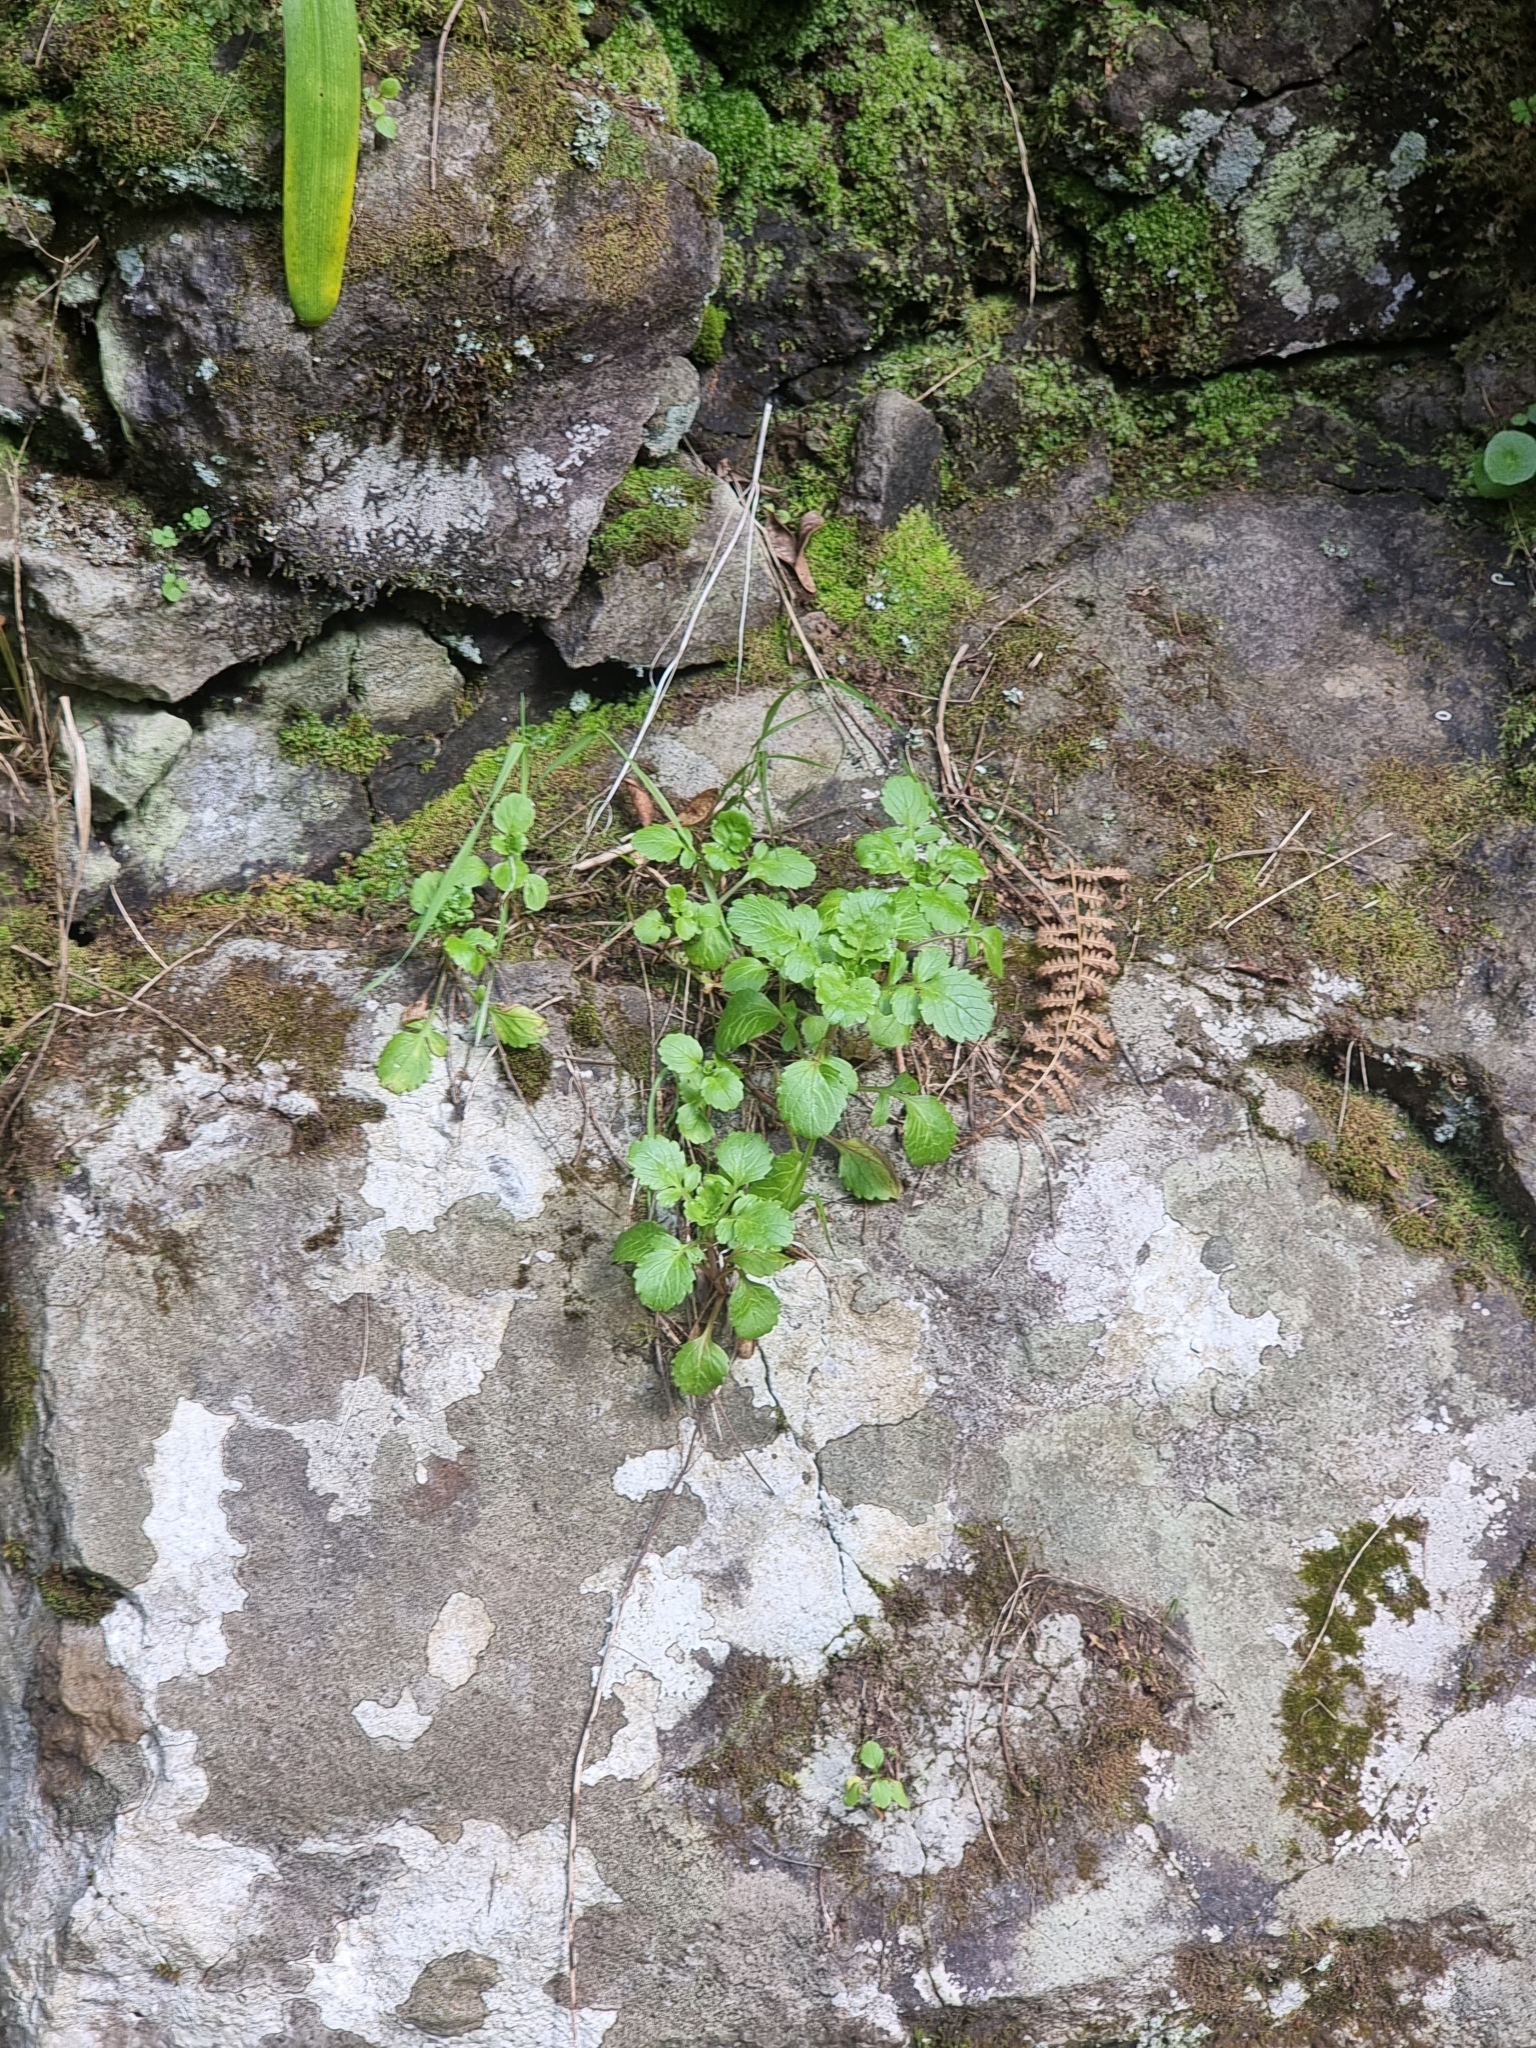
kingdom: Plantae
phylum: Tracheophyta
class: Magnoliopsida
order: Dipsacales
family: Caprifoliaceae
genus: Centranthus
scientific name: Centranthus calcitrapae
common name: Annual valerian
